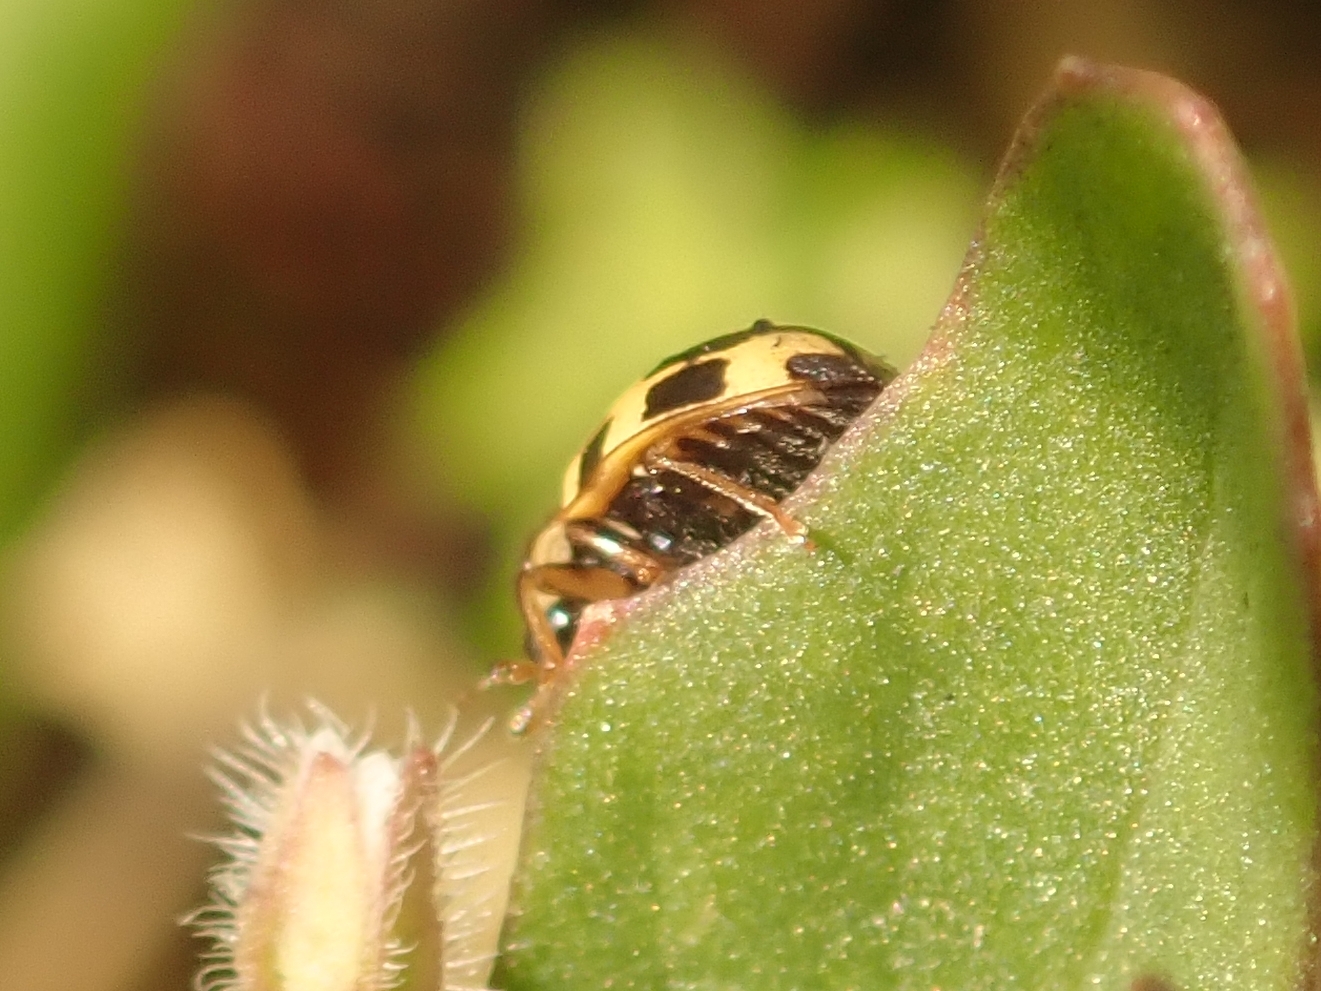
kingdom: Animalia
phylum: Arthropoda
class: Insecta
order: Coleoptera
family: Coccinellidae
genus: Propylaea
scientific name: Propylaea quatuordecimpunctata
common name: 14-spotted ladybird beetle
